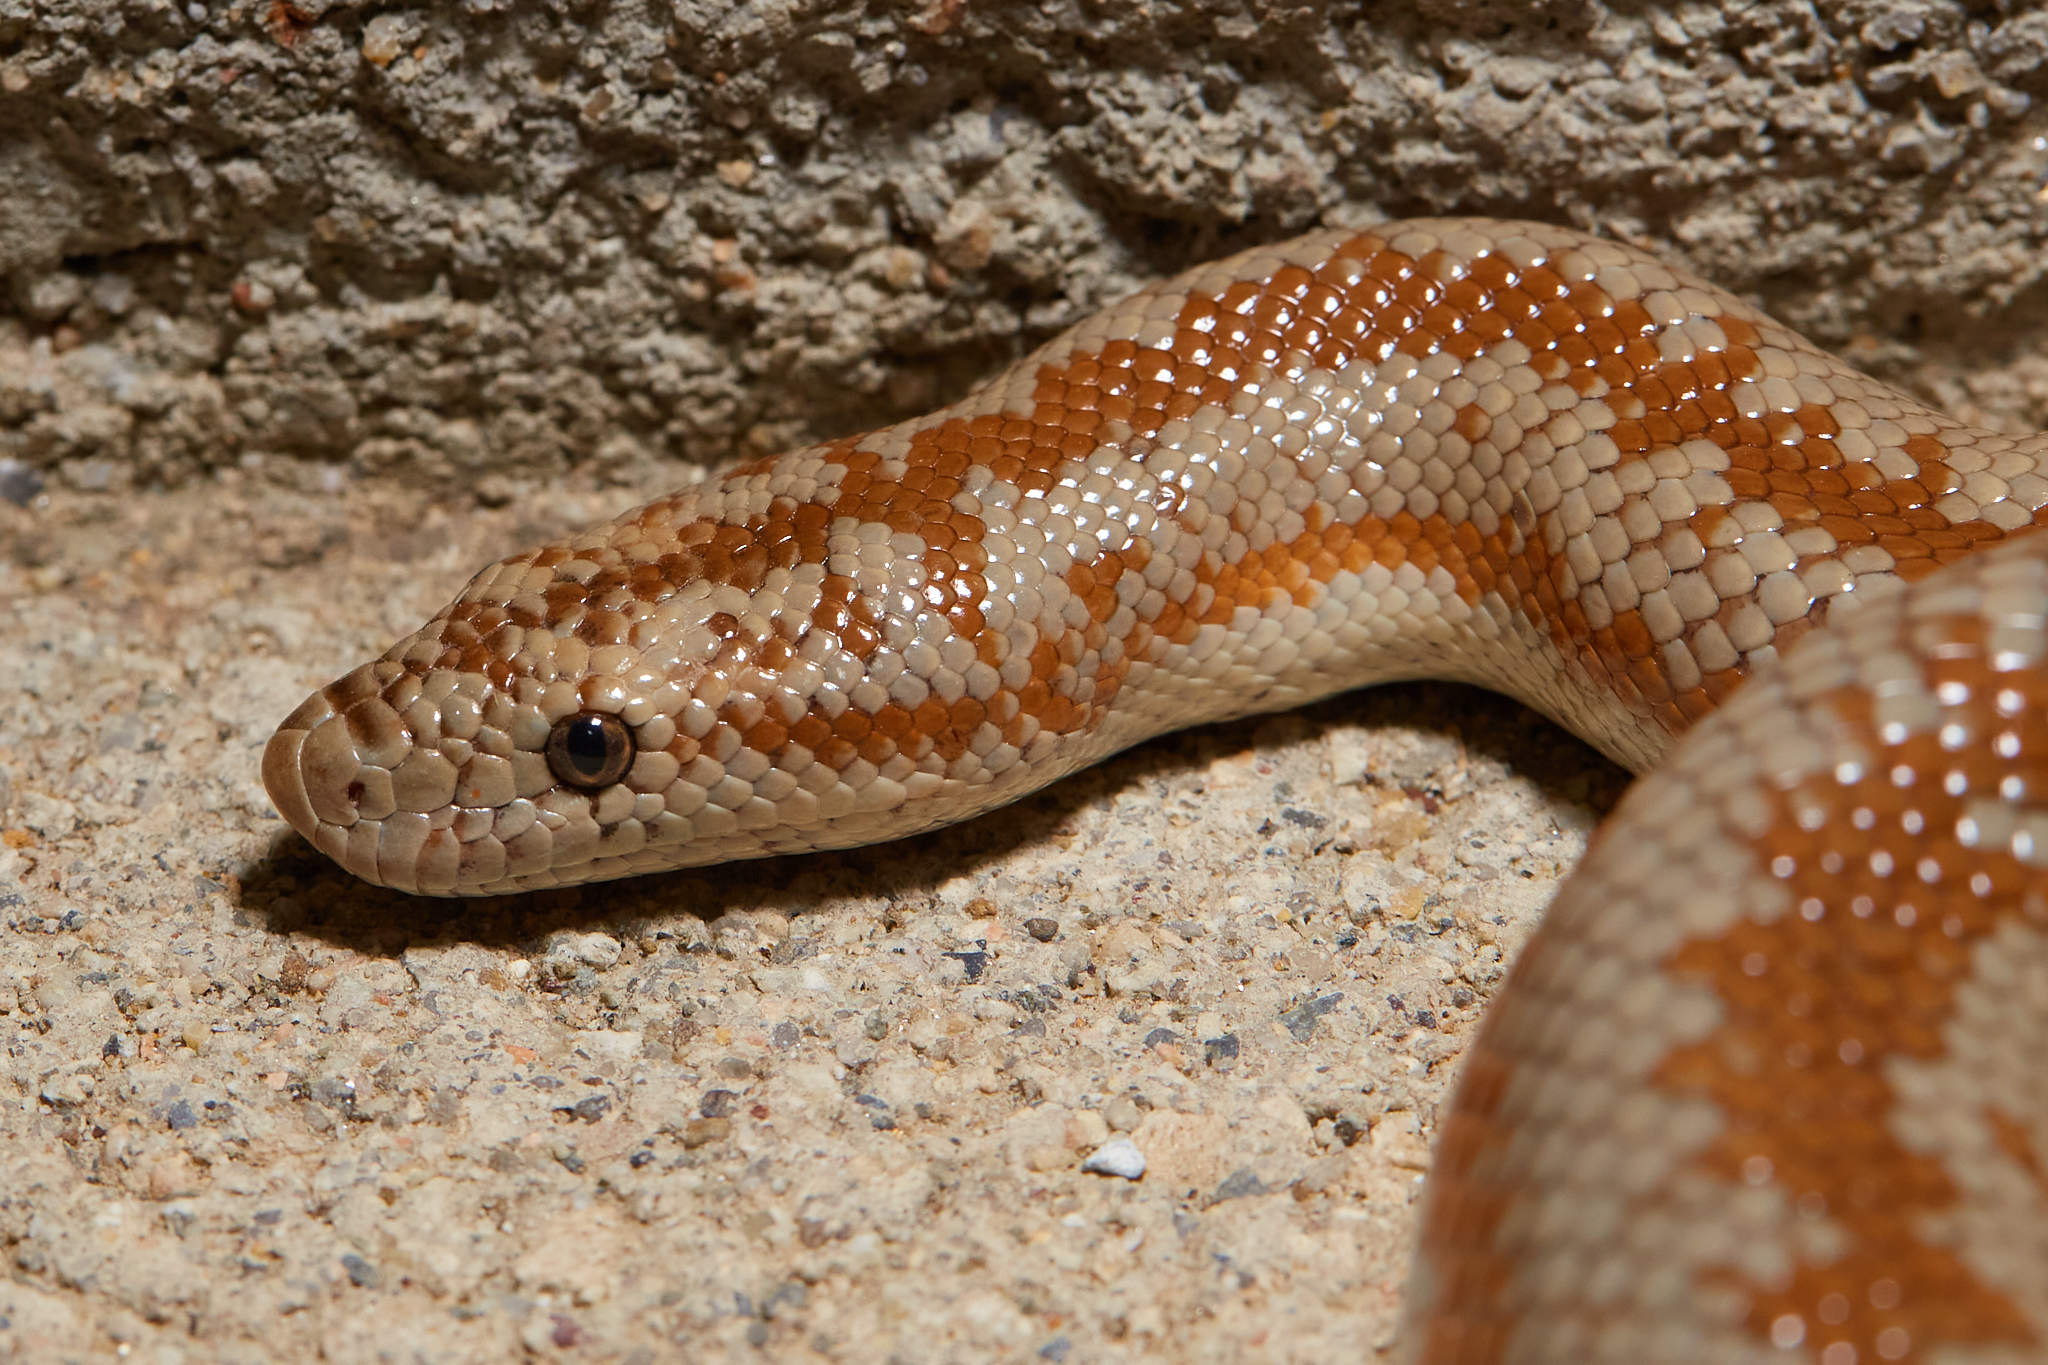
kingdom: Animalia
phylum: Chordata
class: Squamata
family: Boidae
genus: Lichanura
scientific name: Lichanura orcutti
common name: Northern three-lined boa
